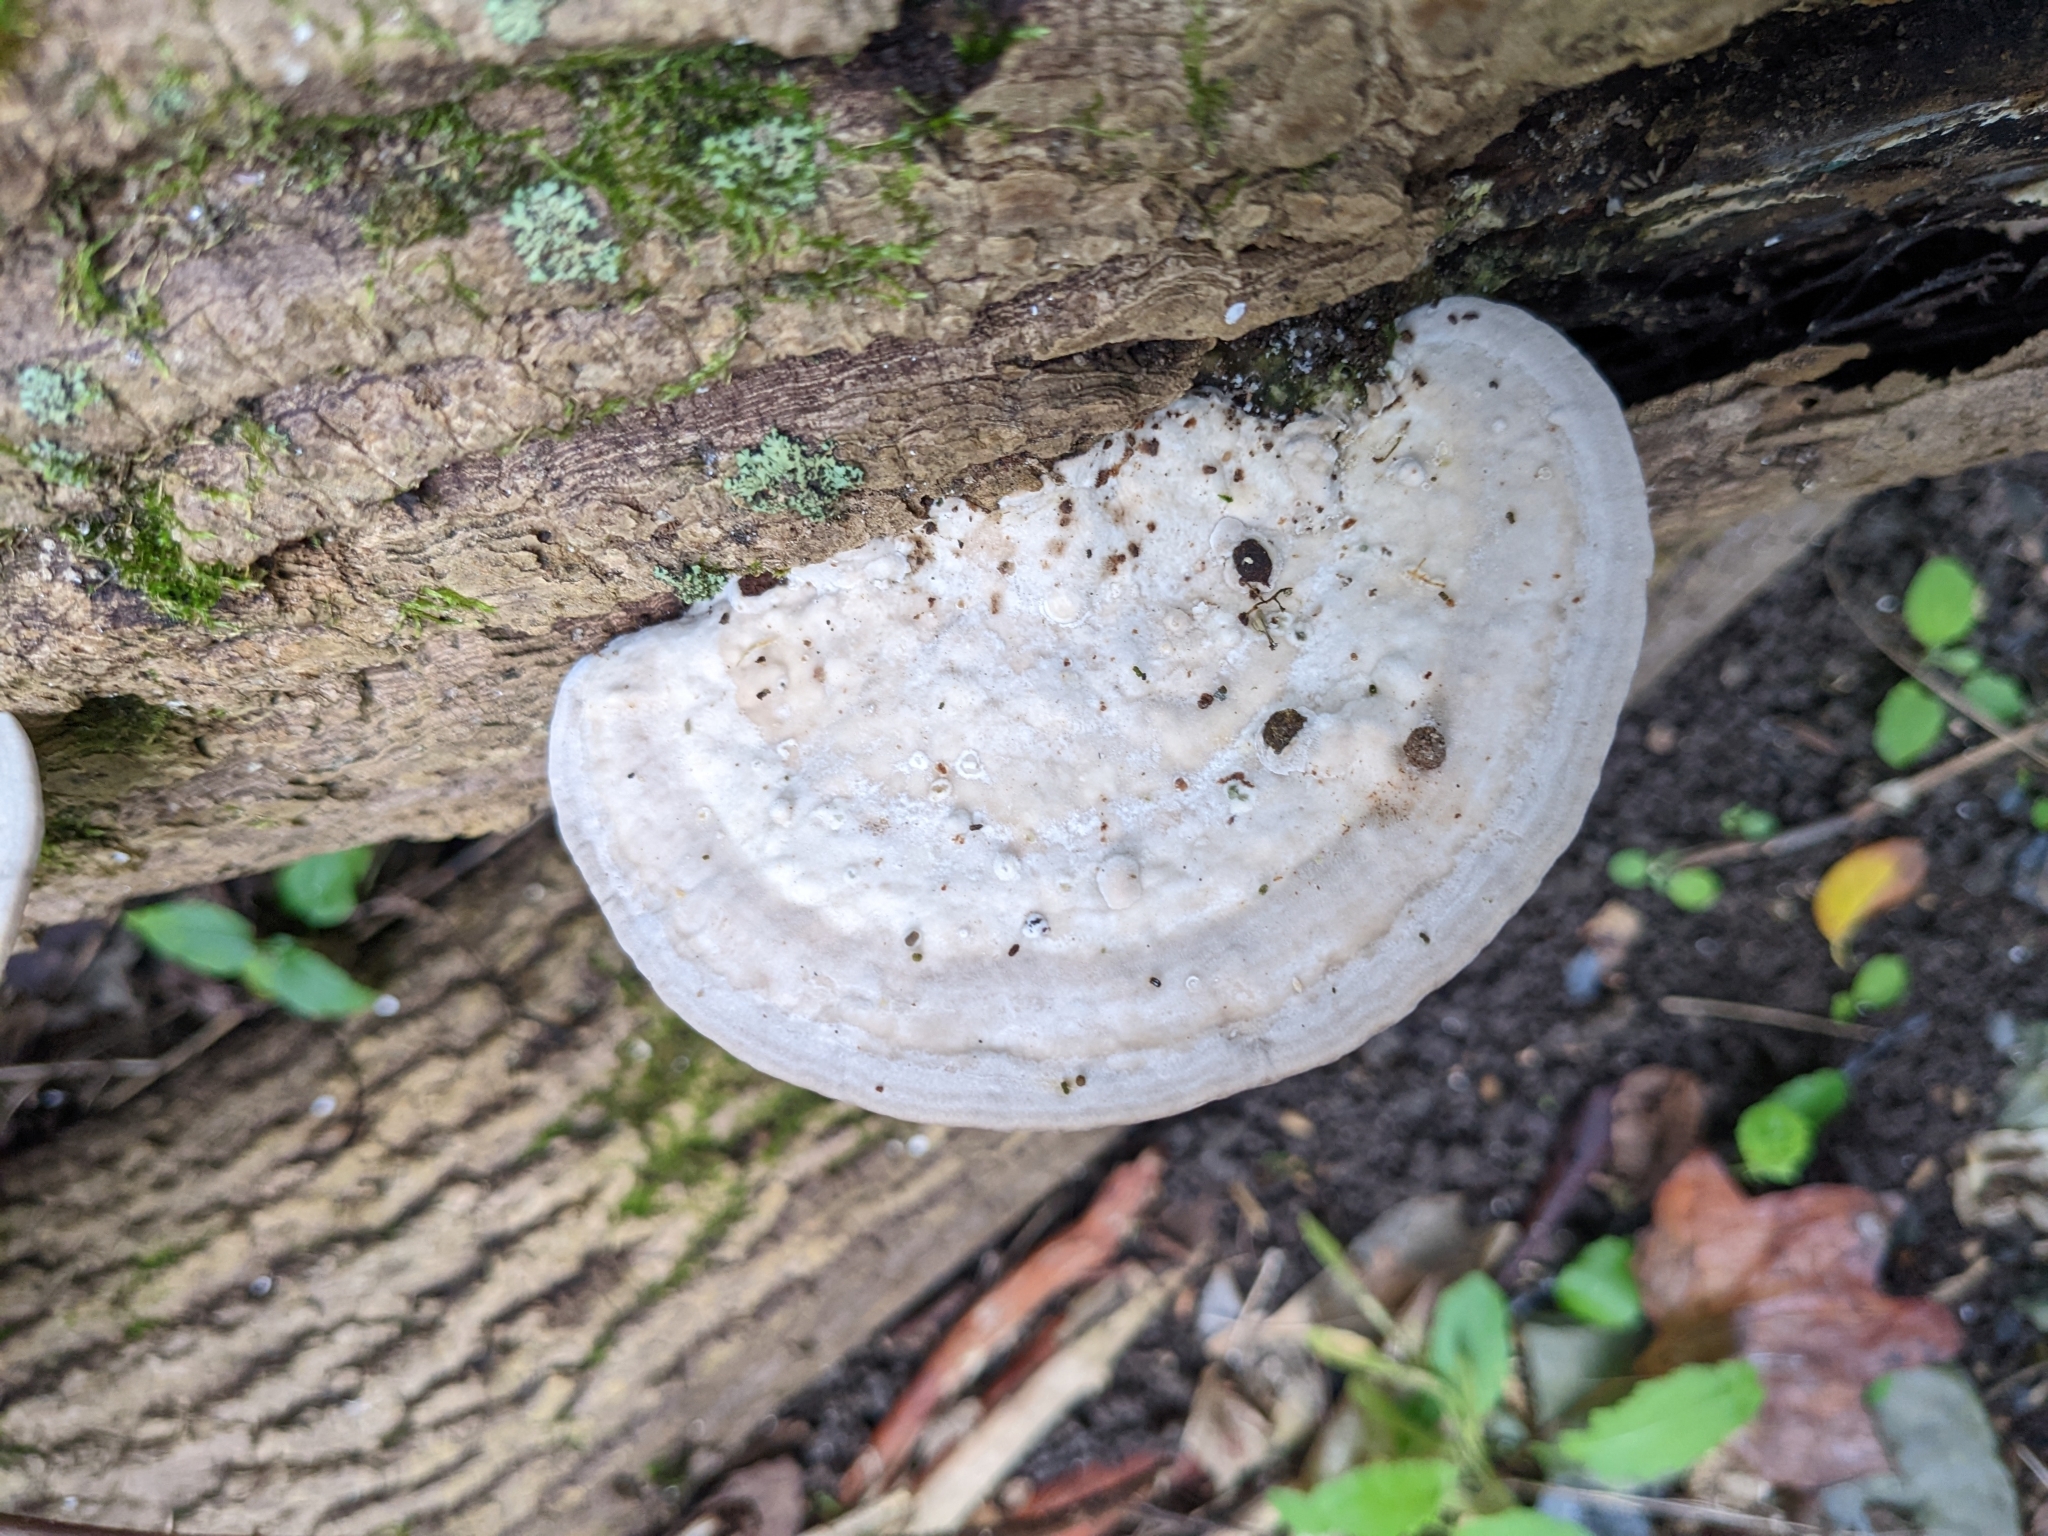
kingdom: Fungi
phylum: Basidiomycota
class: Agaricomycetes
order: Polyporales
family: Polyporaceae
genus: Trametes
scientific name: Trametes gibbosa
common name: Lumpy bracket
